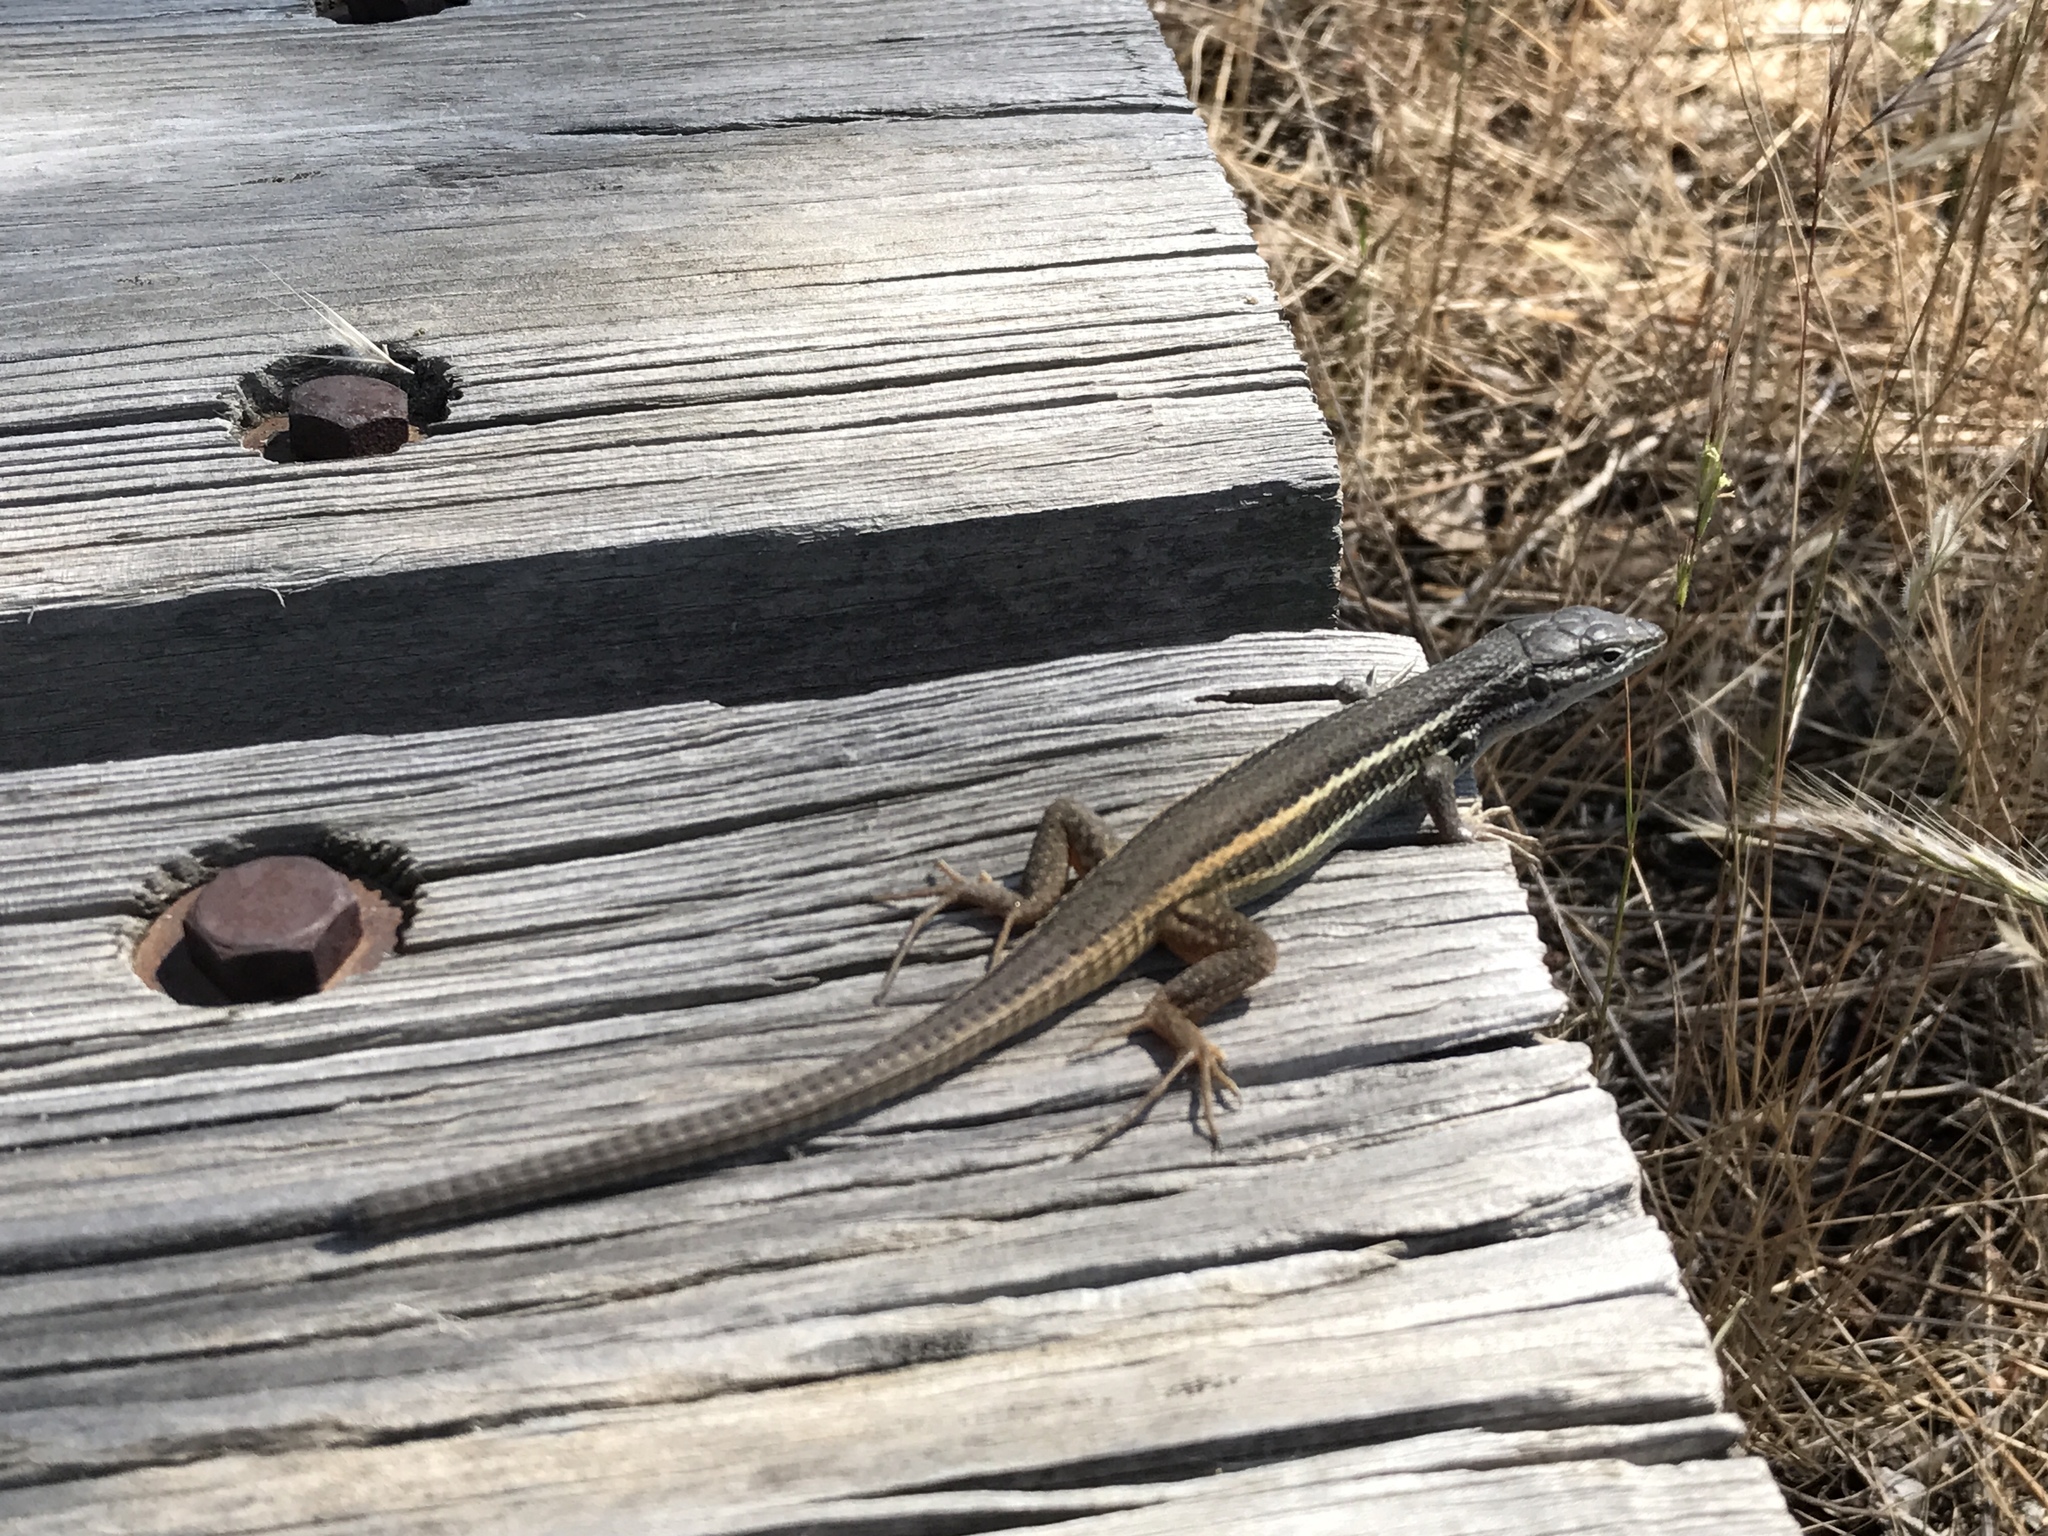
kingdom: Animalia
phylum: Chordata
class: Squamata
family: Lacertidae
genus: Psammodromus
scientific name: Psammodromus algirus
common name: Algerian psammodromus
